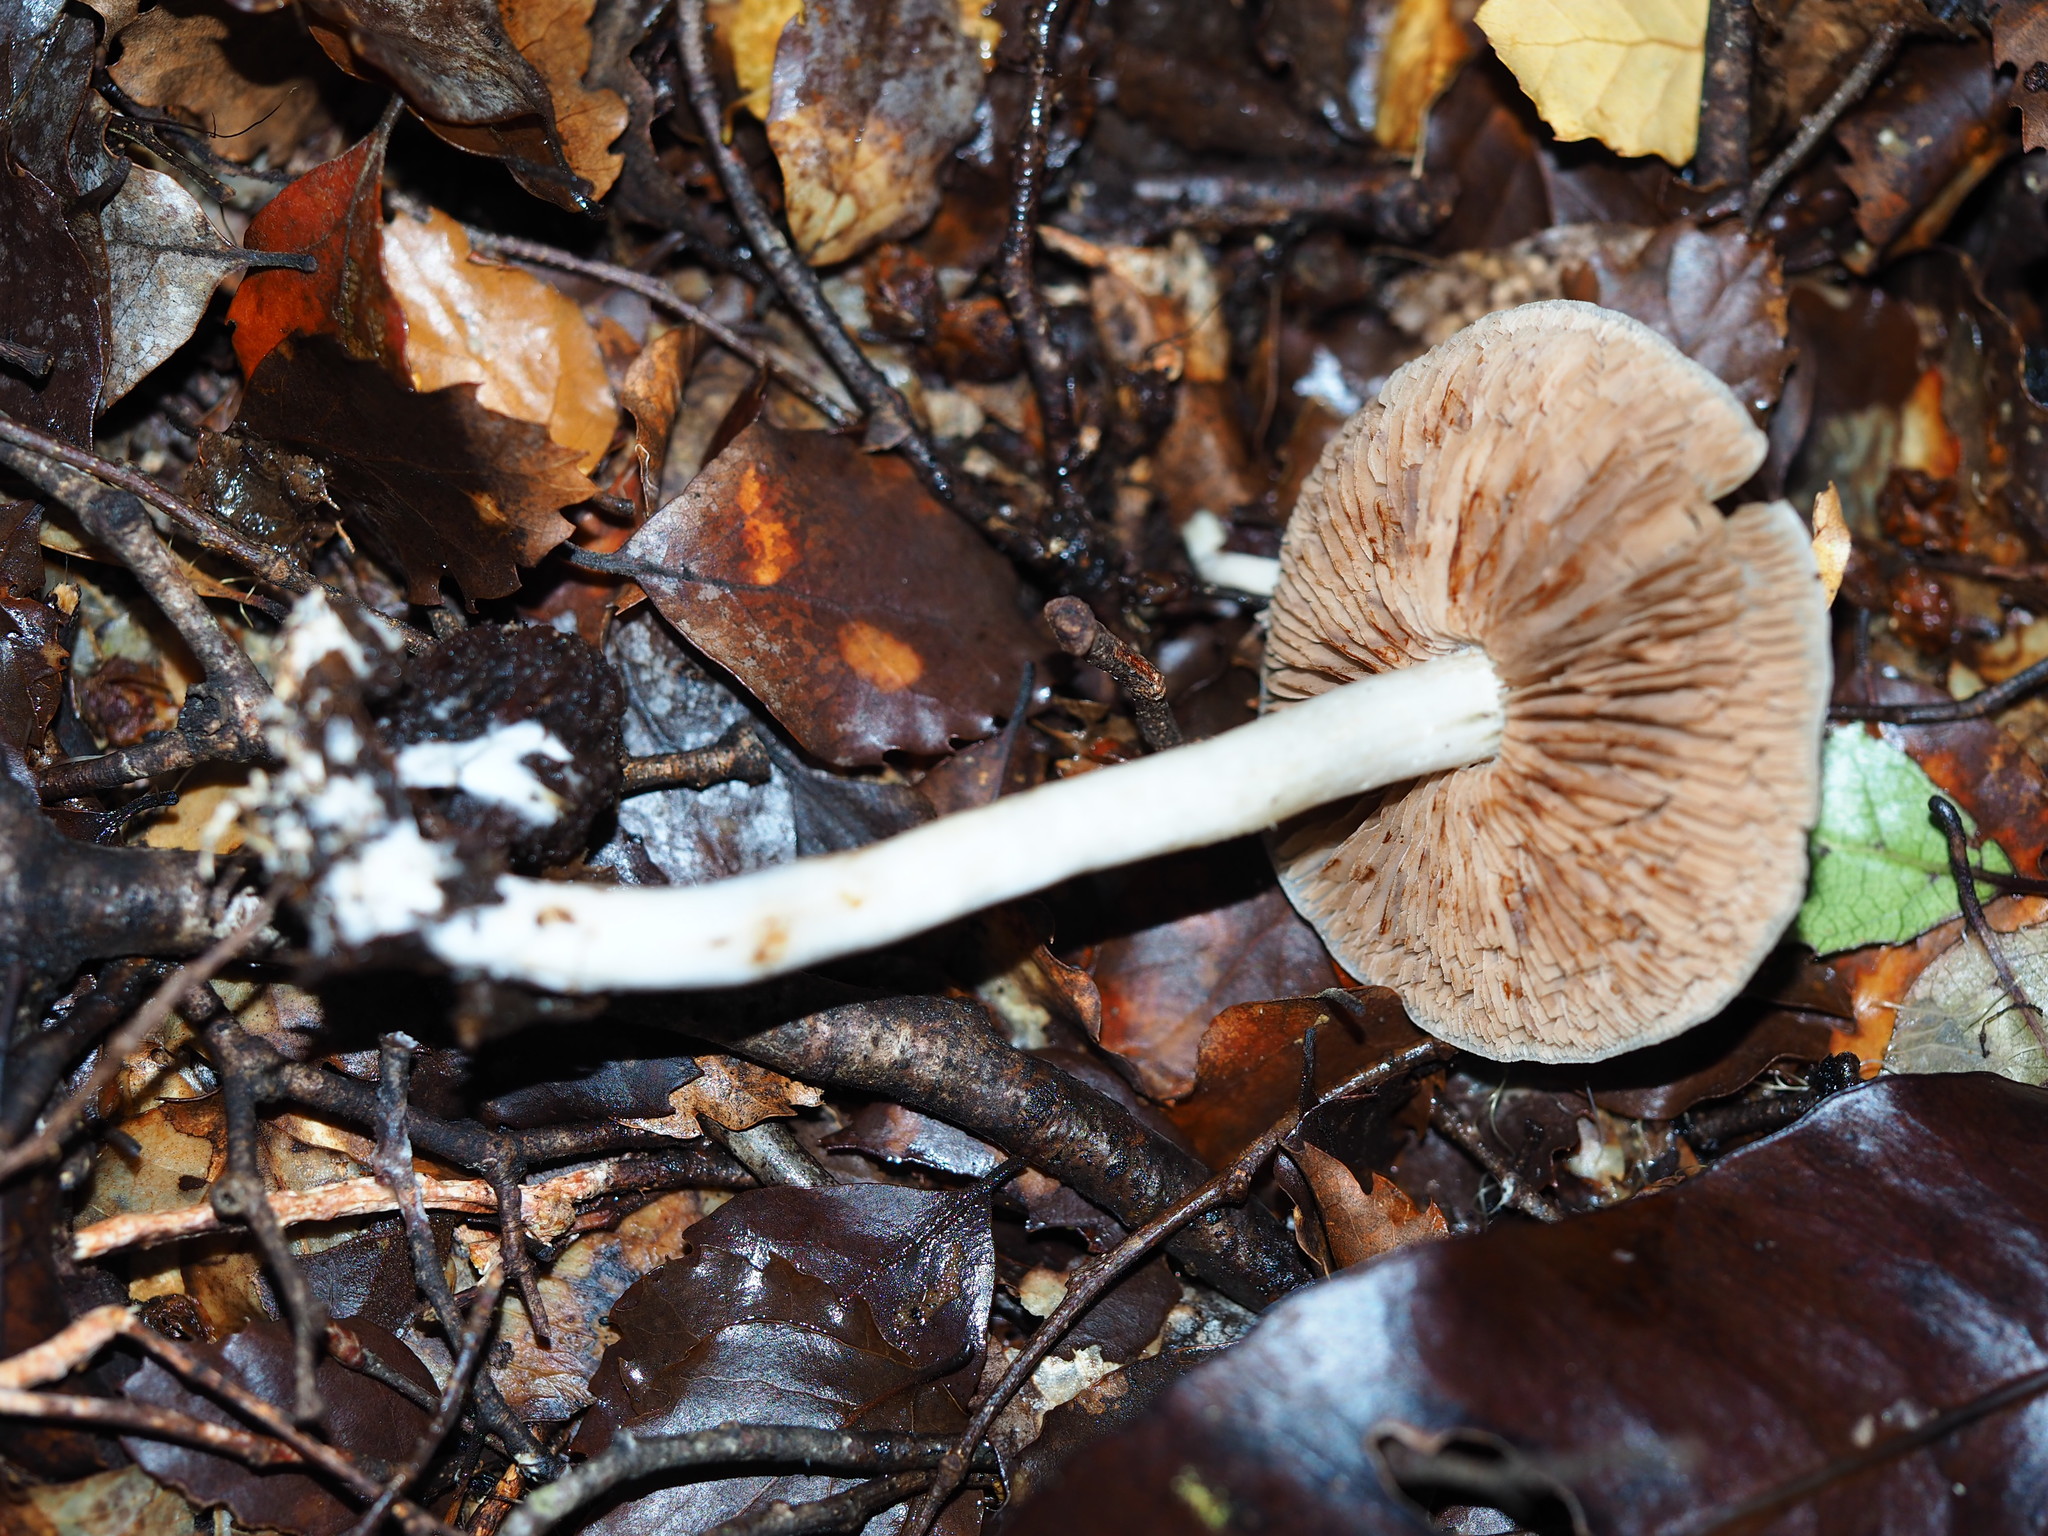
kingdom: Fungi
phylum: Basidiomycota
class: Agaricomycetes
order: Agaricales
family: Hymenogastraceae
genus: Psathyloma
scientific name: Psathyloma leucocarpum
